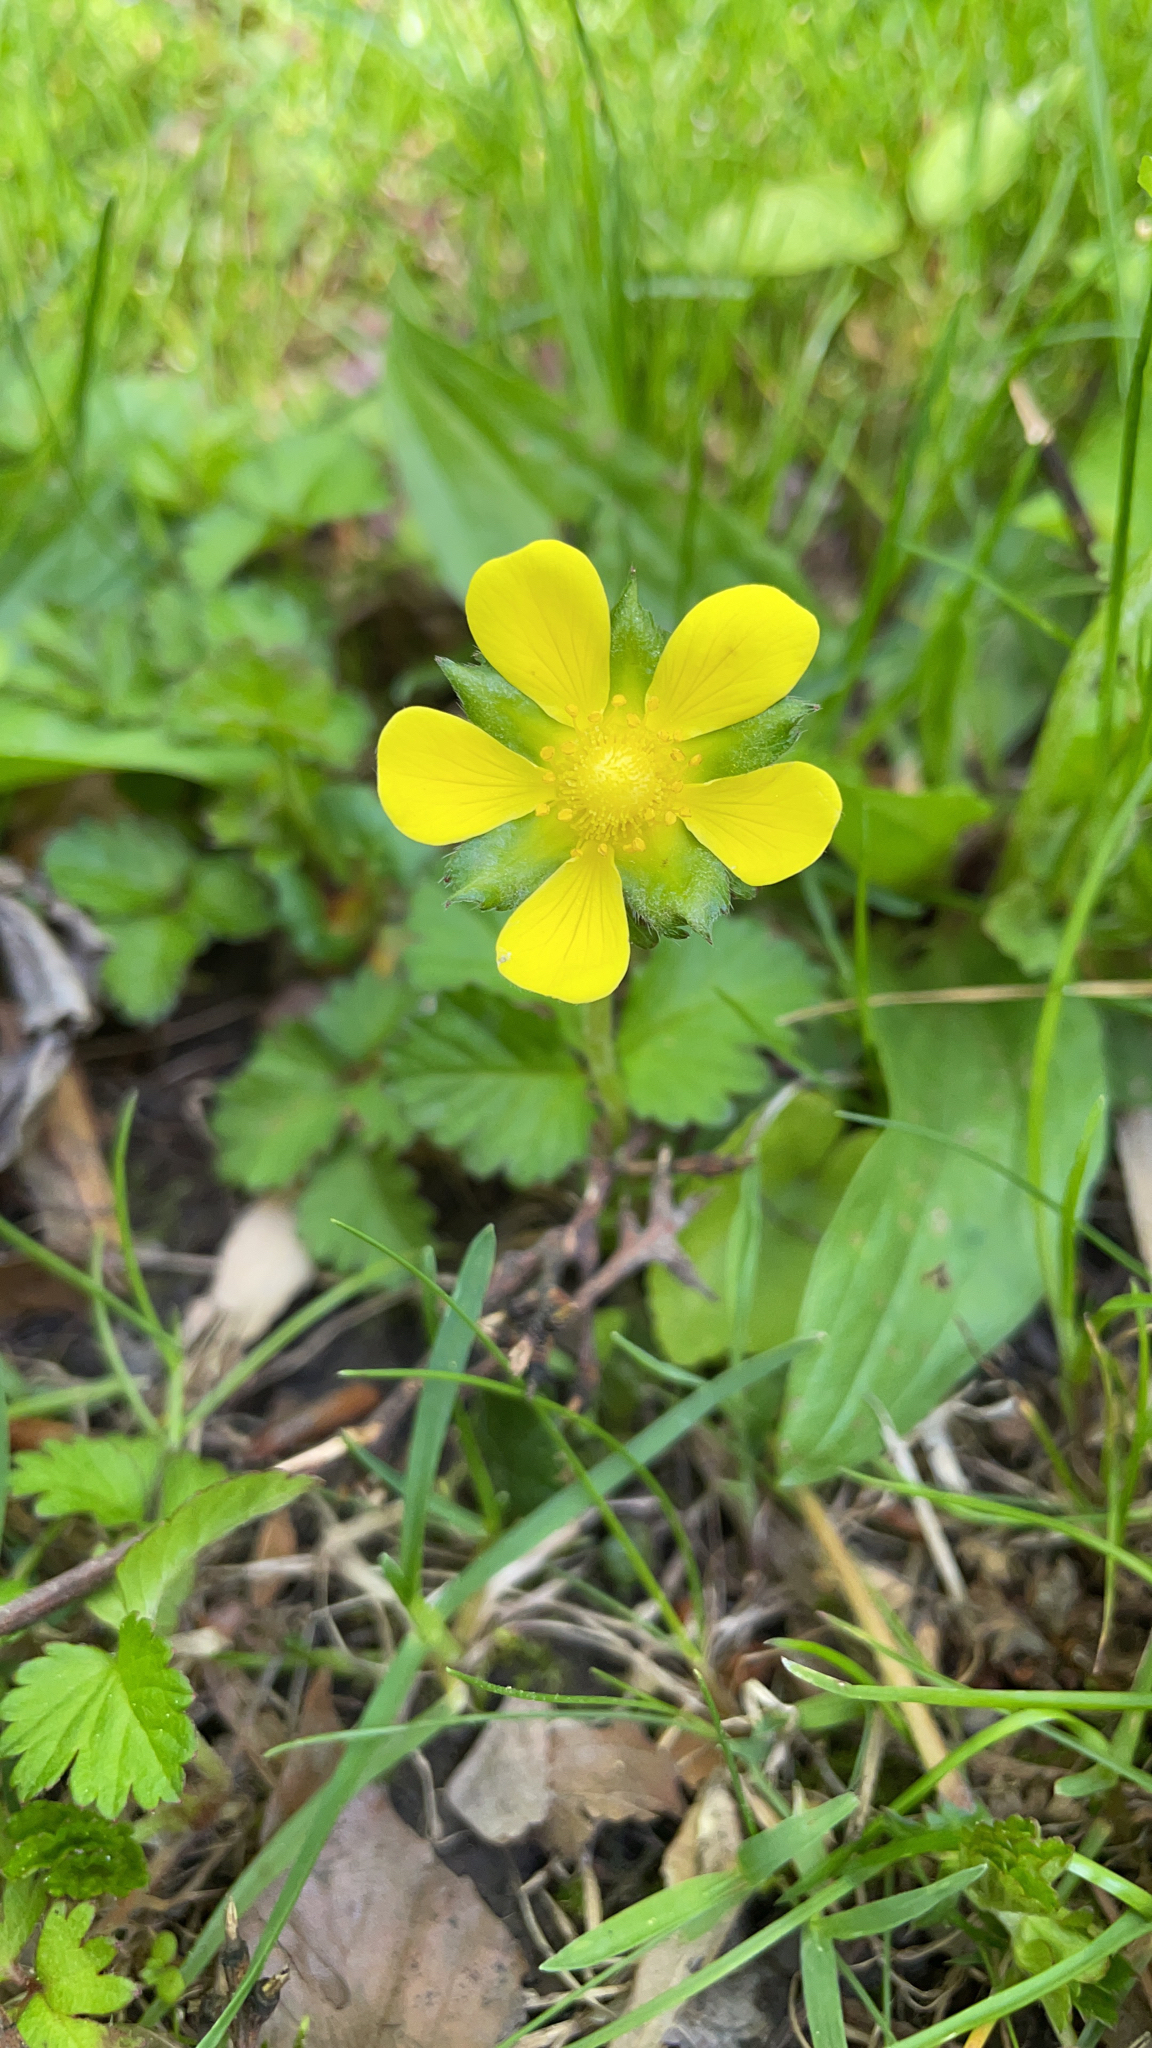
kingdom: Plantae
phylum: Tracheophyta
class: Magnoliopsida
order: Rosales
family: Rosaceae
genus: Potentilla
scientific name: Potentilla indica
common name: Yellow-flowered strawberry
